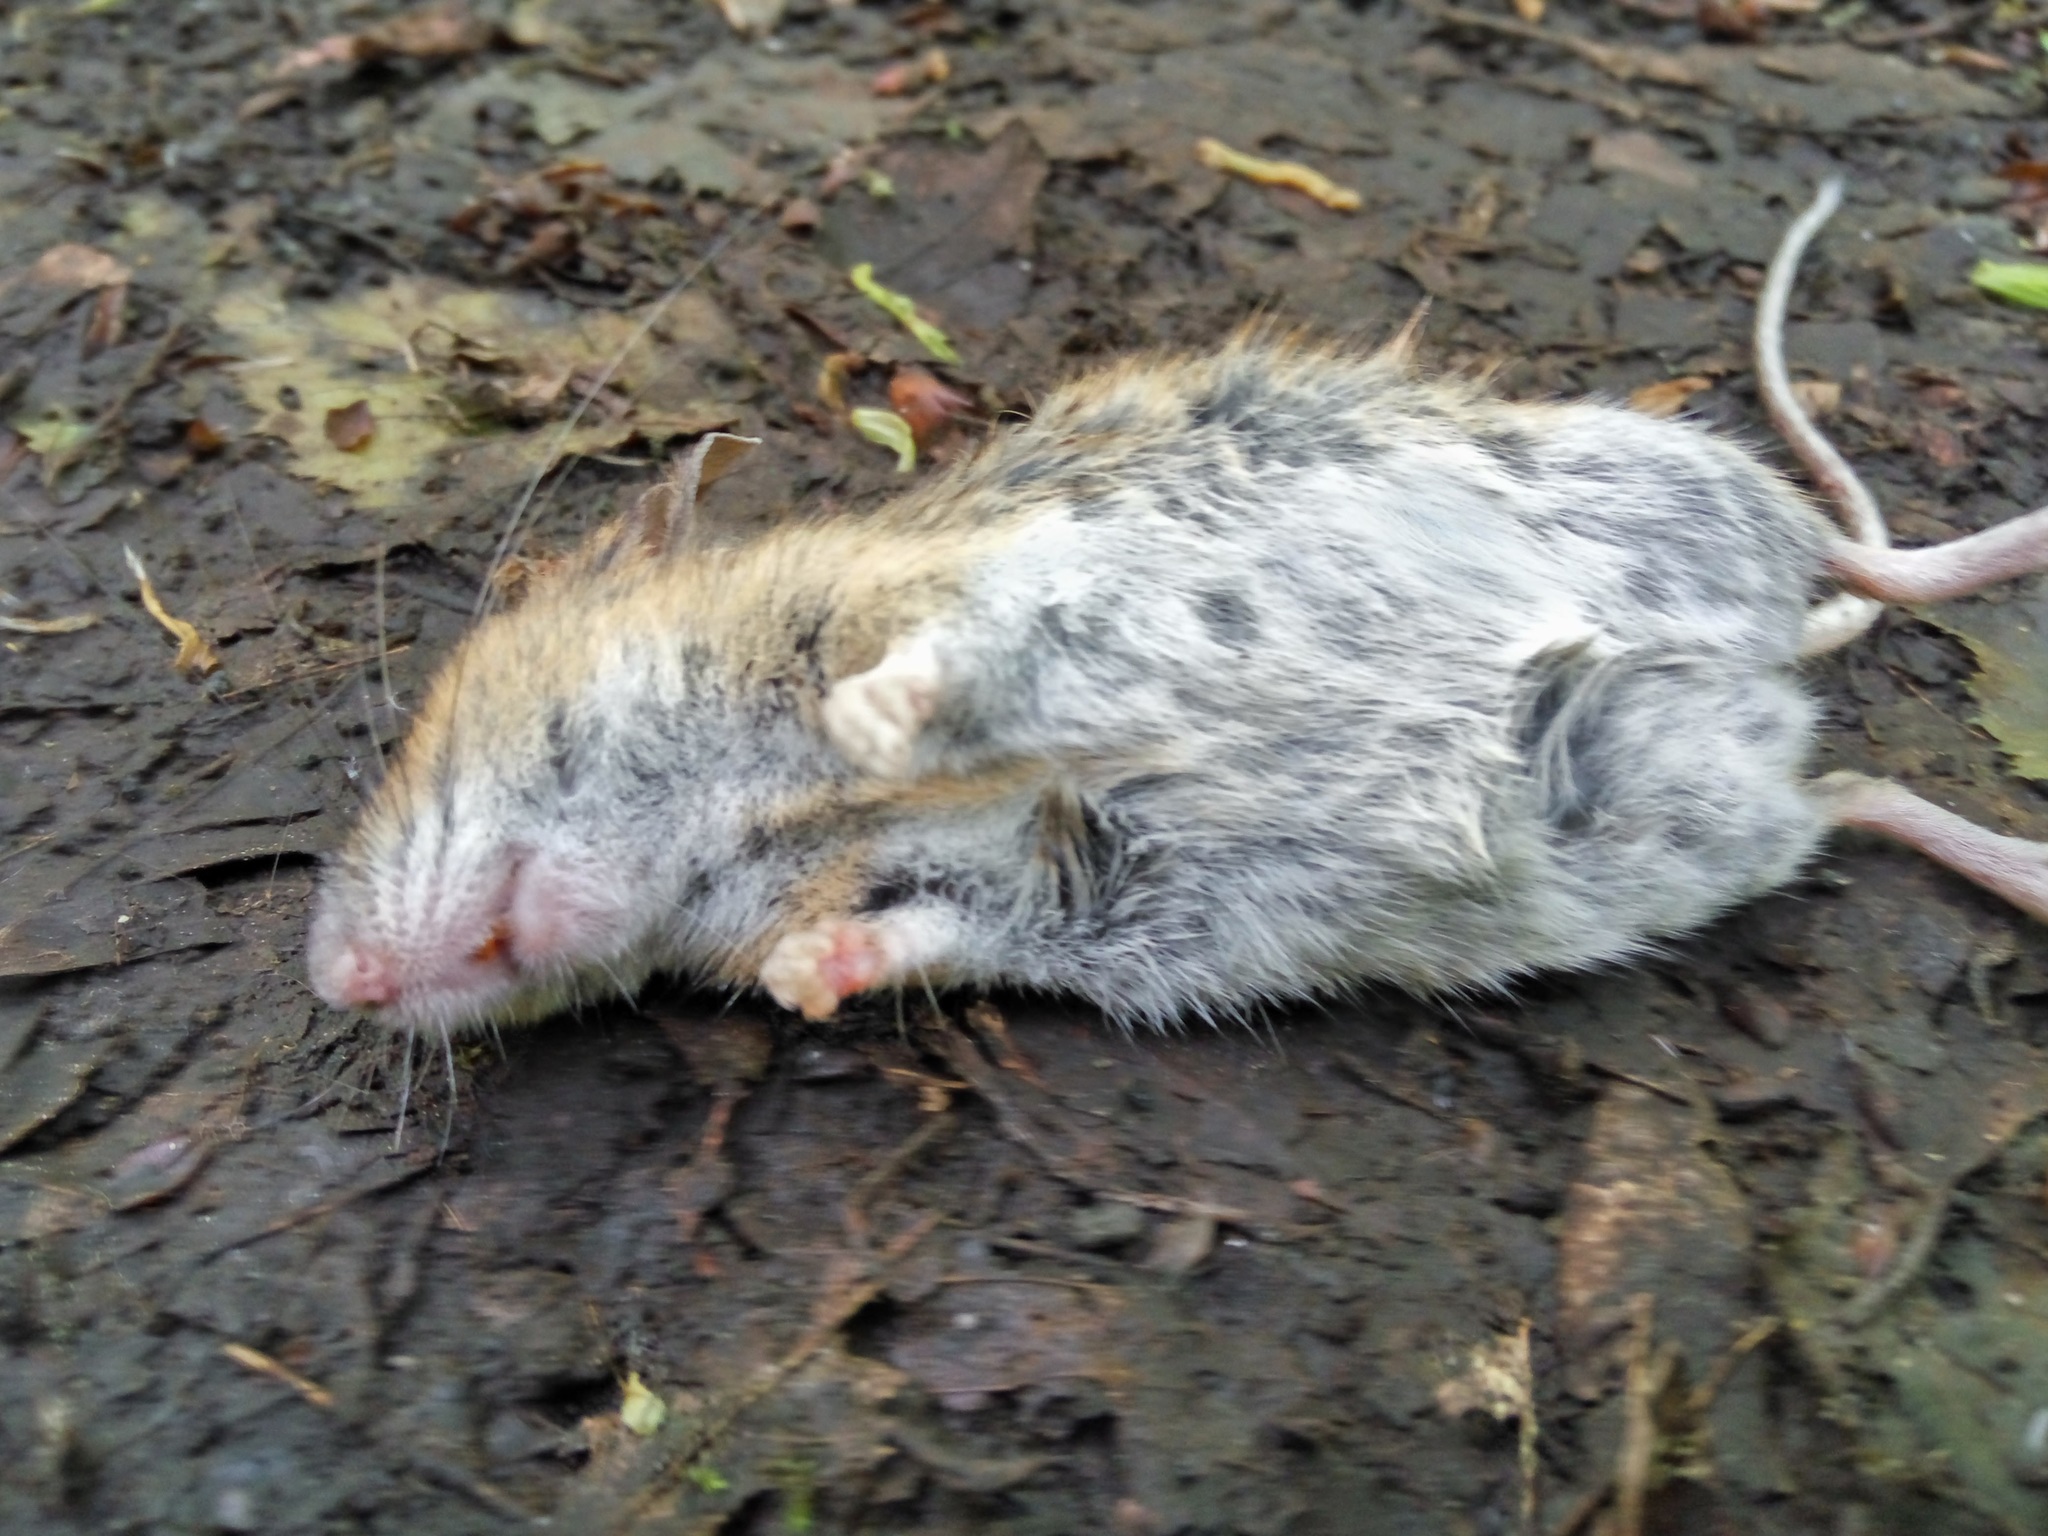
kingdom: Animalia
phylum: Chordata
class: Mammalia
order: Rodentia
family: Muridae
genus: Apodemus
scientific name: Apodemus sylvaticus
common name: Wood mouse
